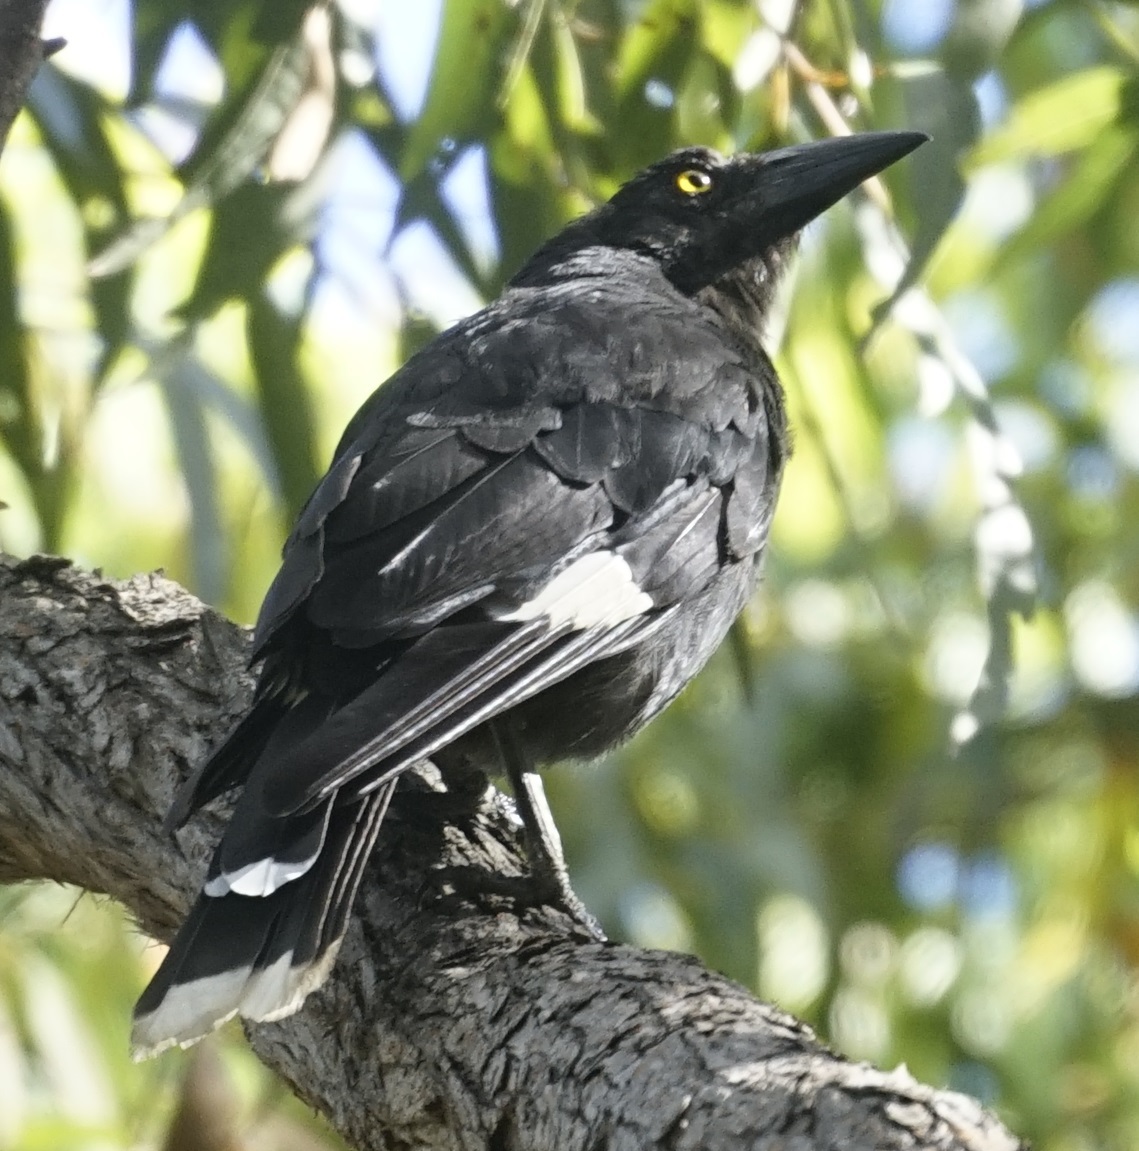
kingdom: Animalia
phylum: Chordata
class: Aves
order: Passeriformes
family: Cracticidae
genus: Strepera
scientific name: Strepera graculina
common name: Pied currawong
